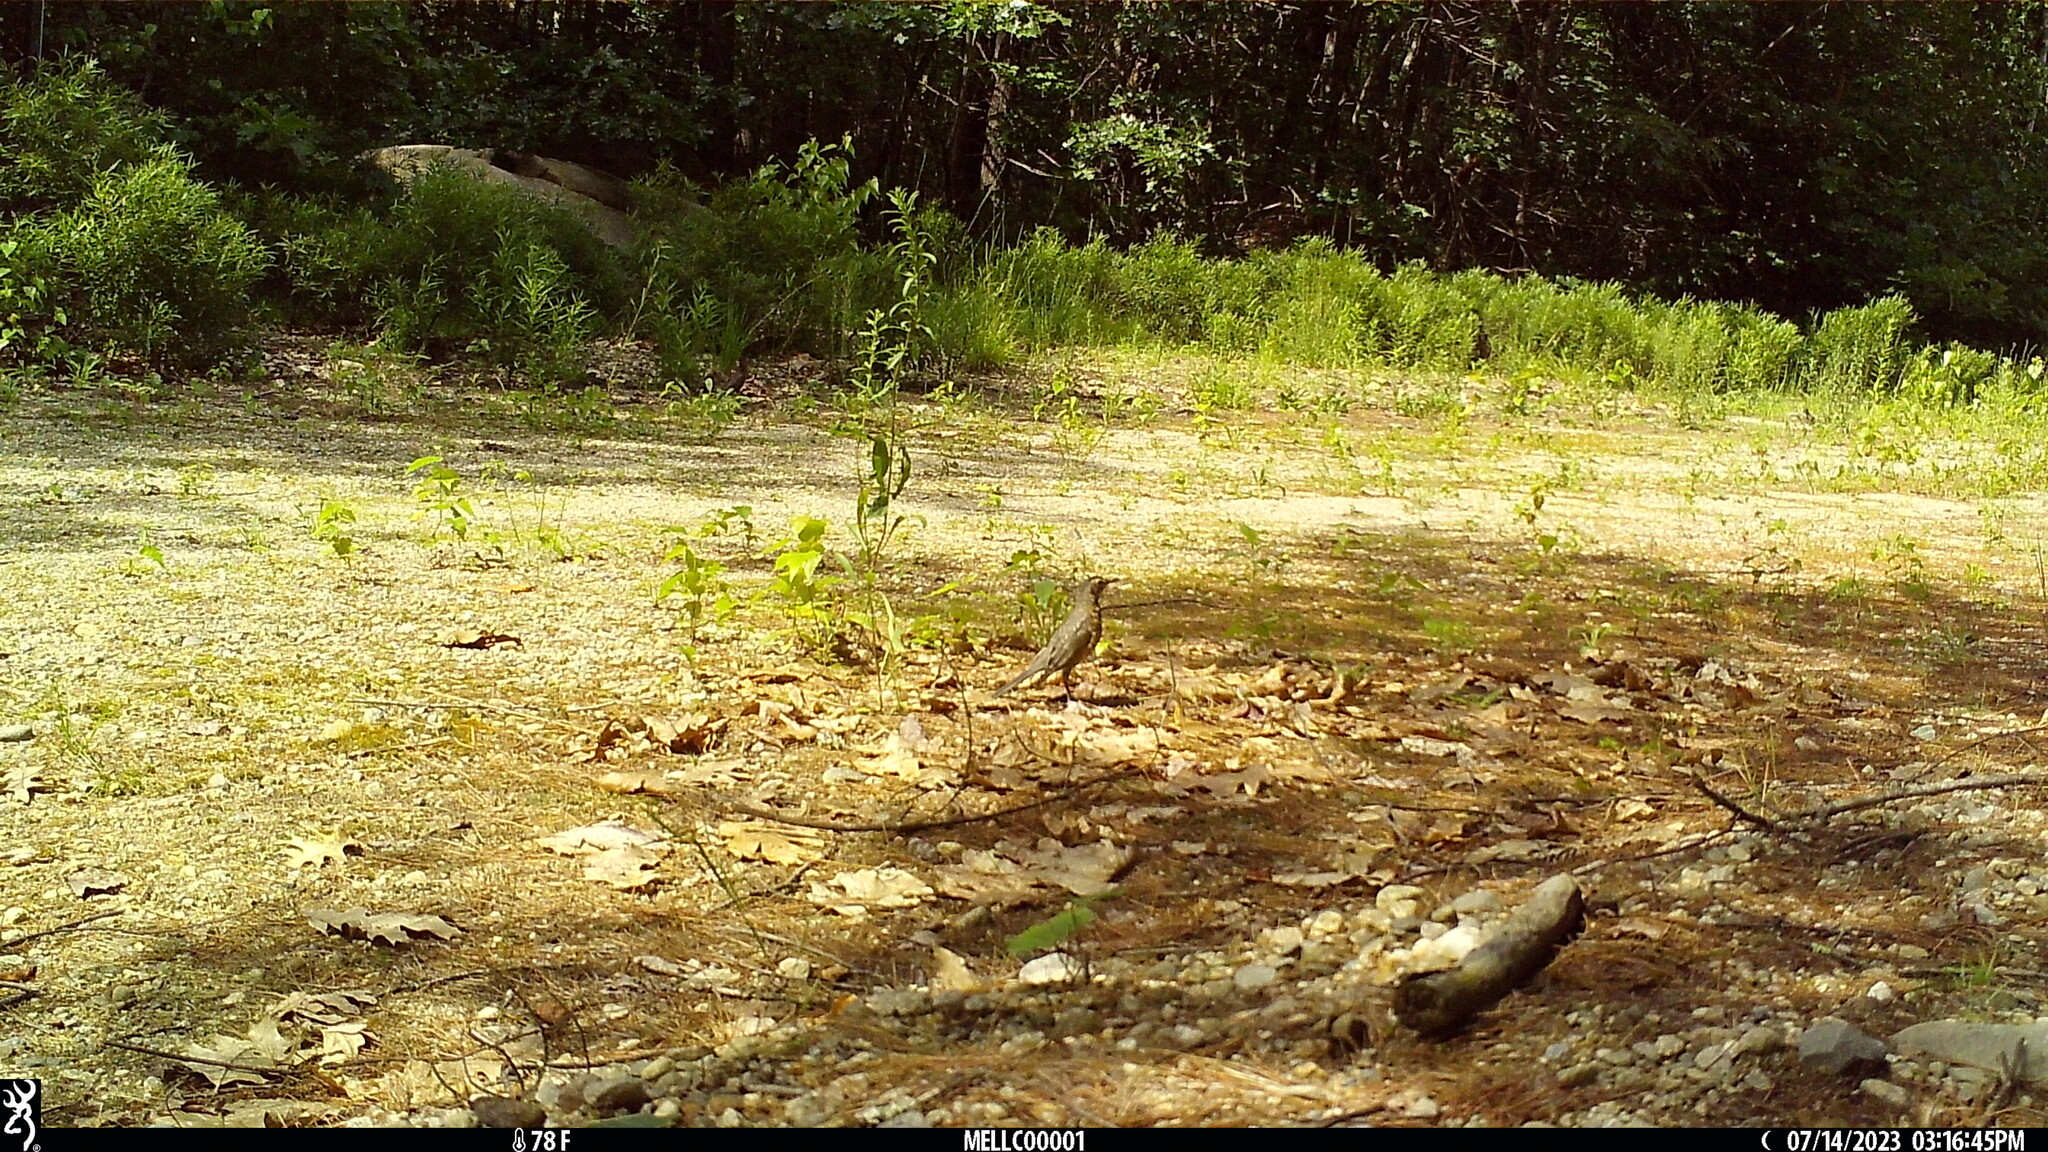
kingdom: Animalia
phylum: Chordata
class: Aves
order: Passeriformes
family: Turdidae
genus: Turdus
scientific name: Turdus migratorius
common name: American robin
